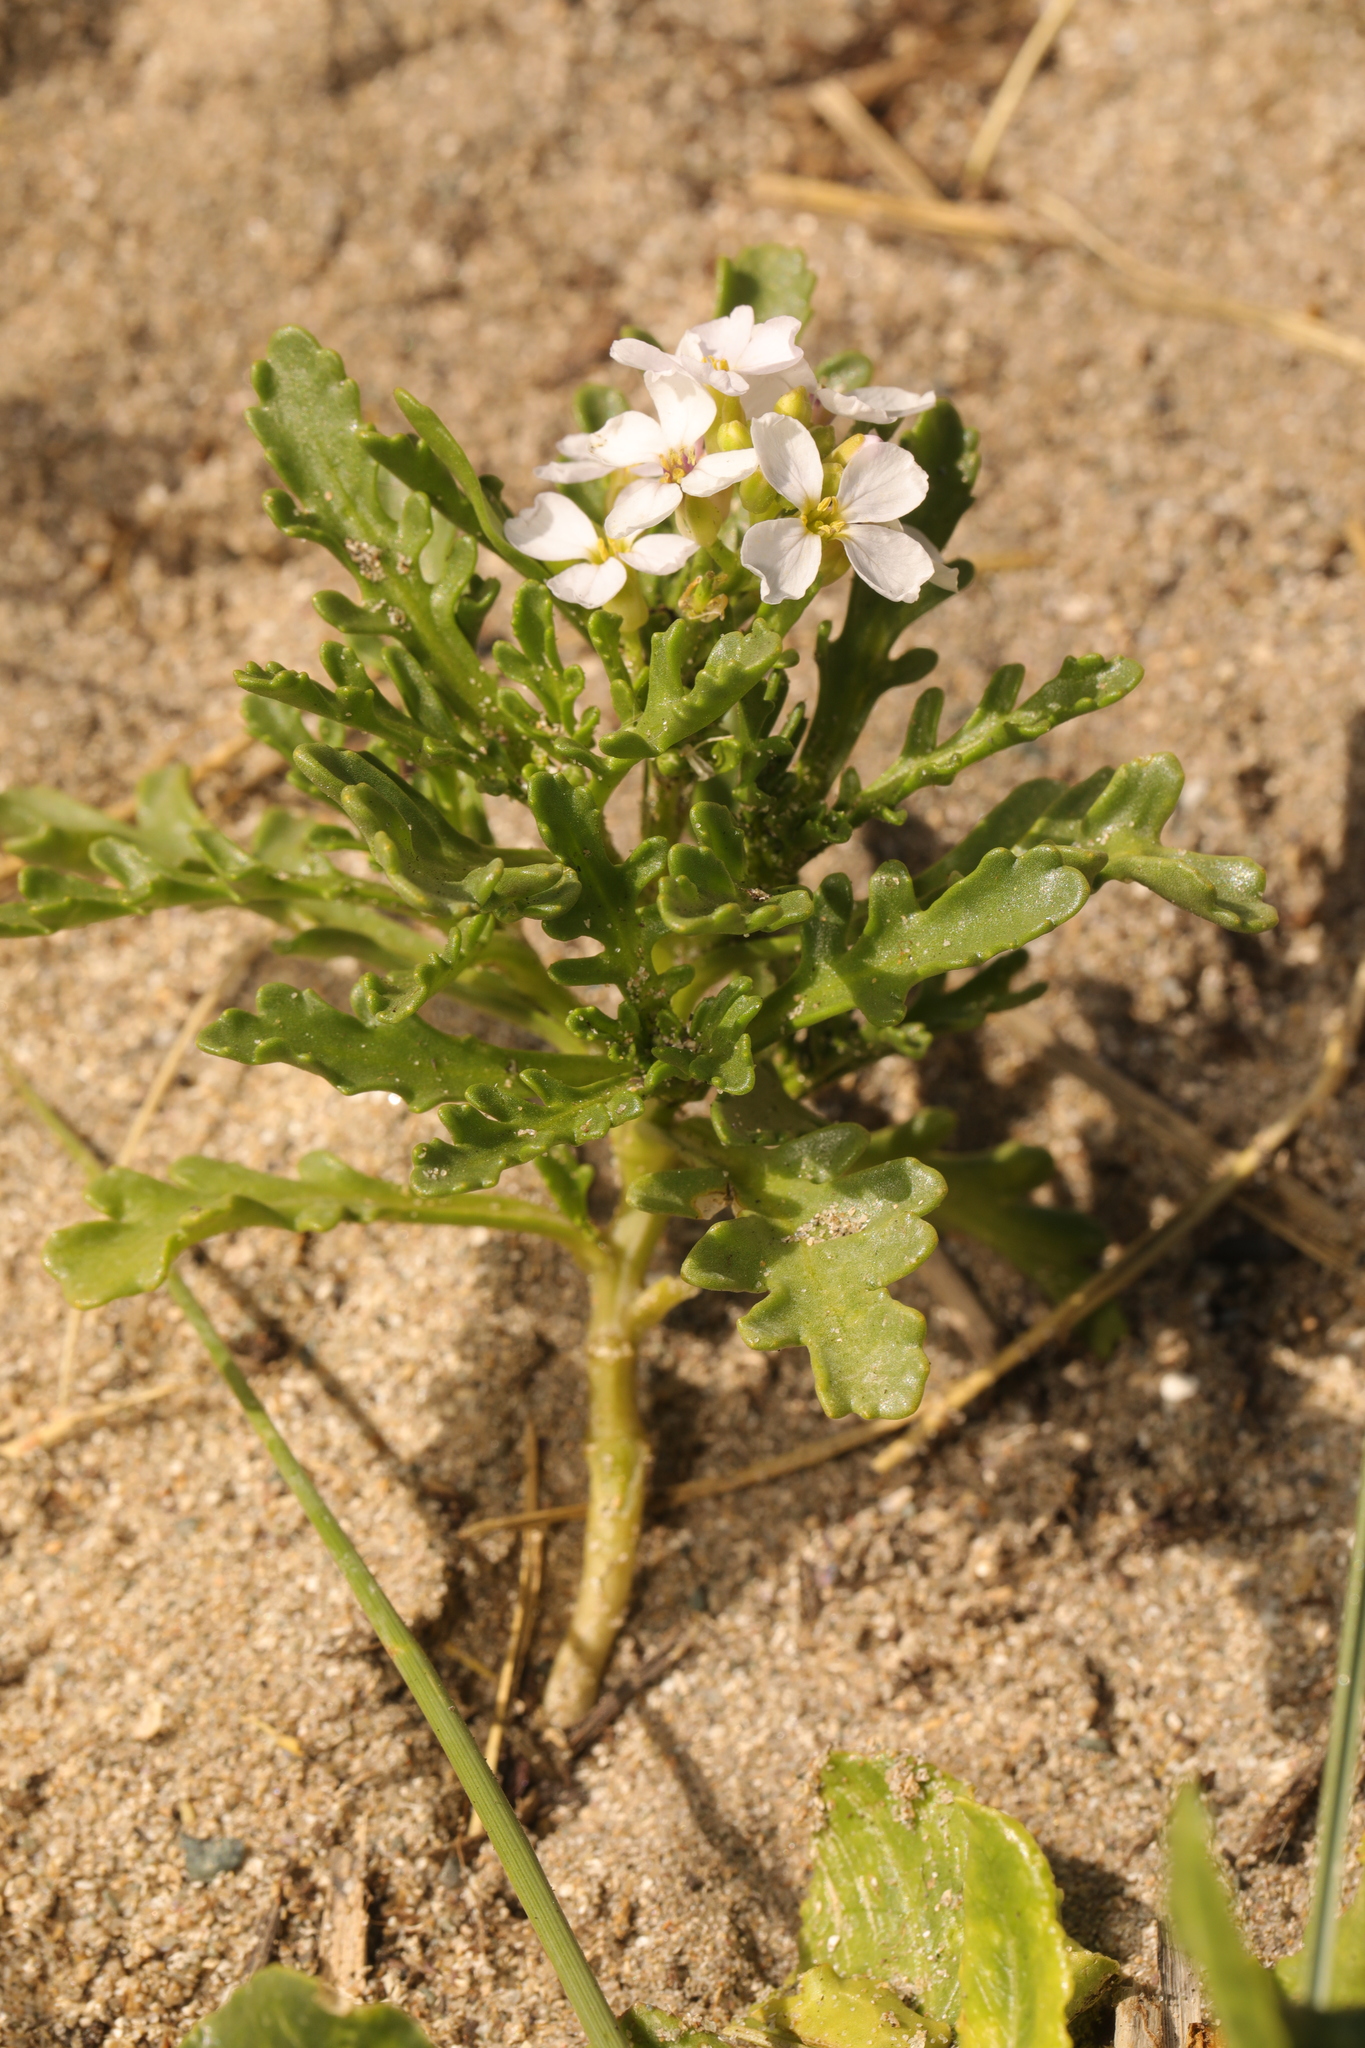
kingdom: Plantae
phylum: Tracheophyta
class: Magnoliopsida
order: Brassicales
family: Brassicaceae
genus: Cakile
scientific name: Cakile maritima
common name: Sea rocket
